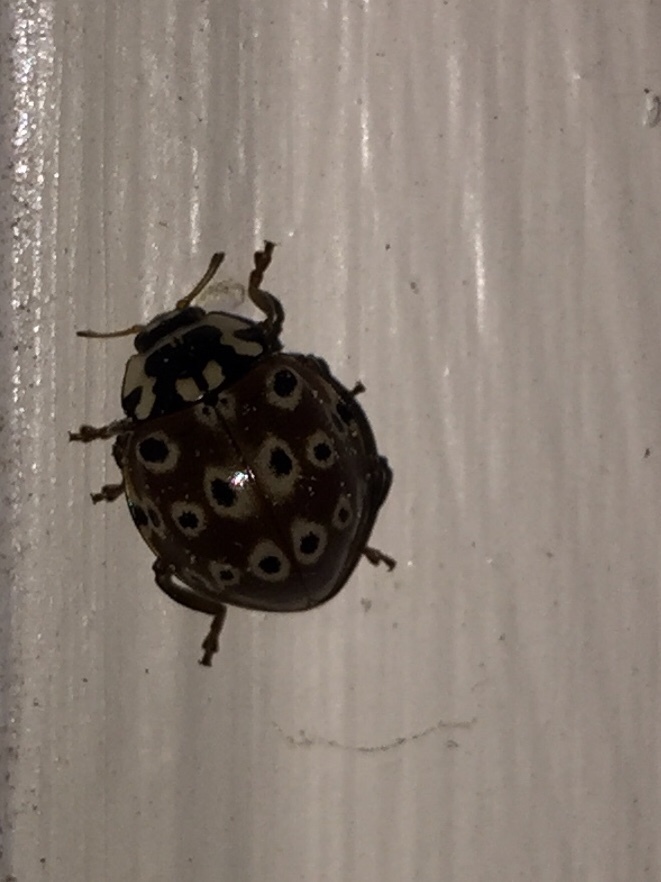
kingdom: Animalia
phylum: Arthropoda
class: Insecta
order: Coleoptera
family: Coccinellidae
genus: Anatis
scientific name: Anatis mali
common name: Eye-spotted lady beetle
